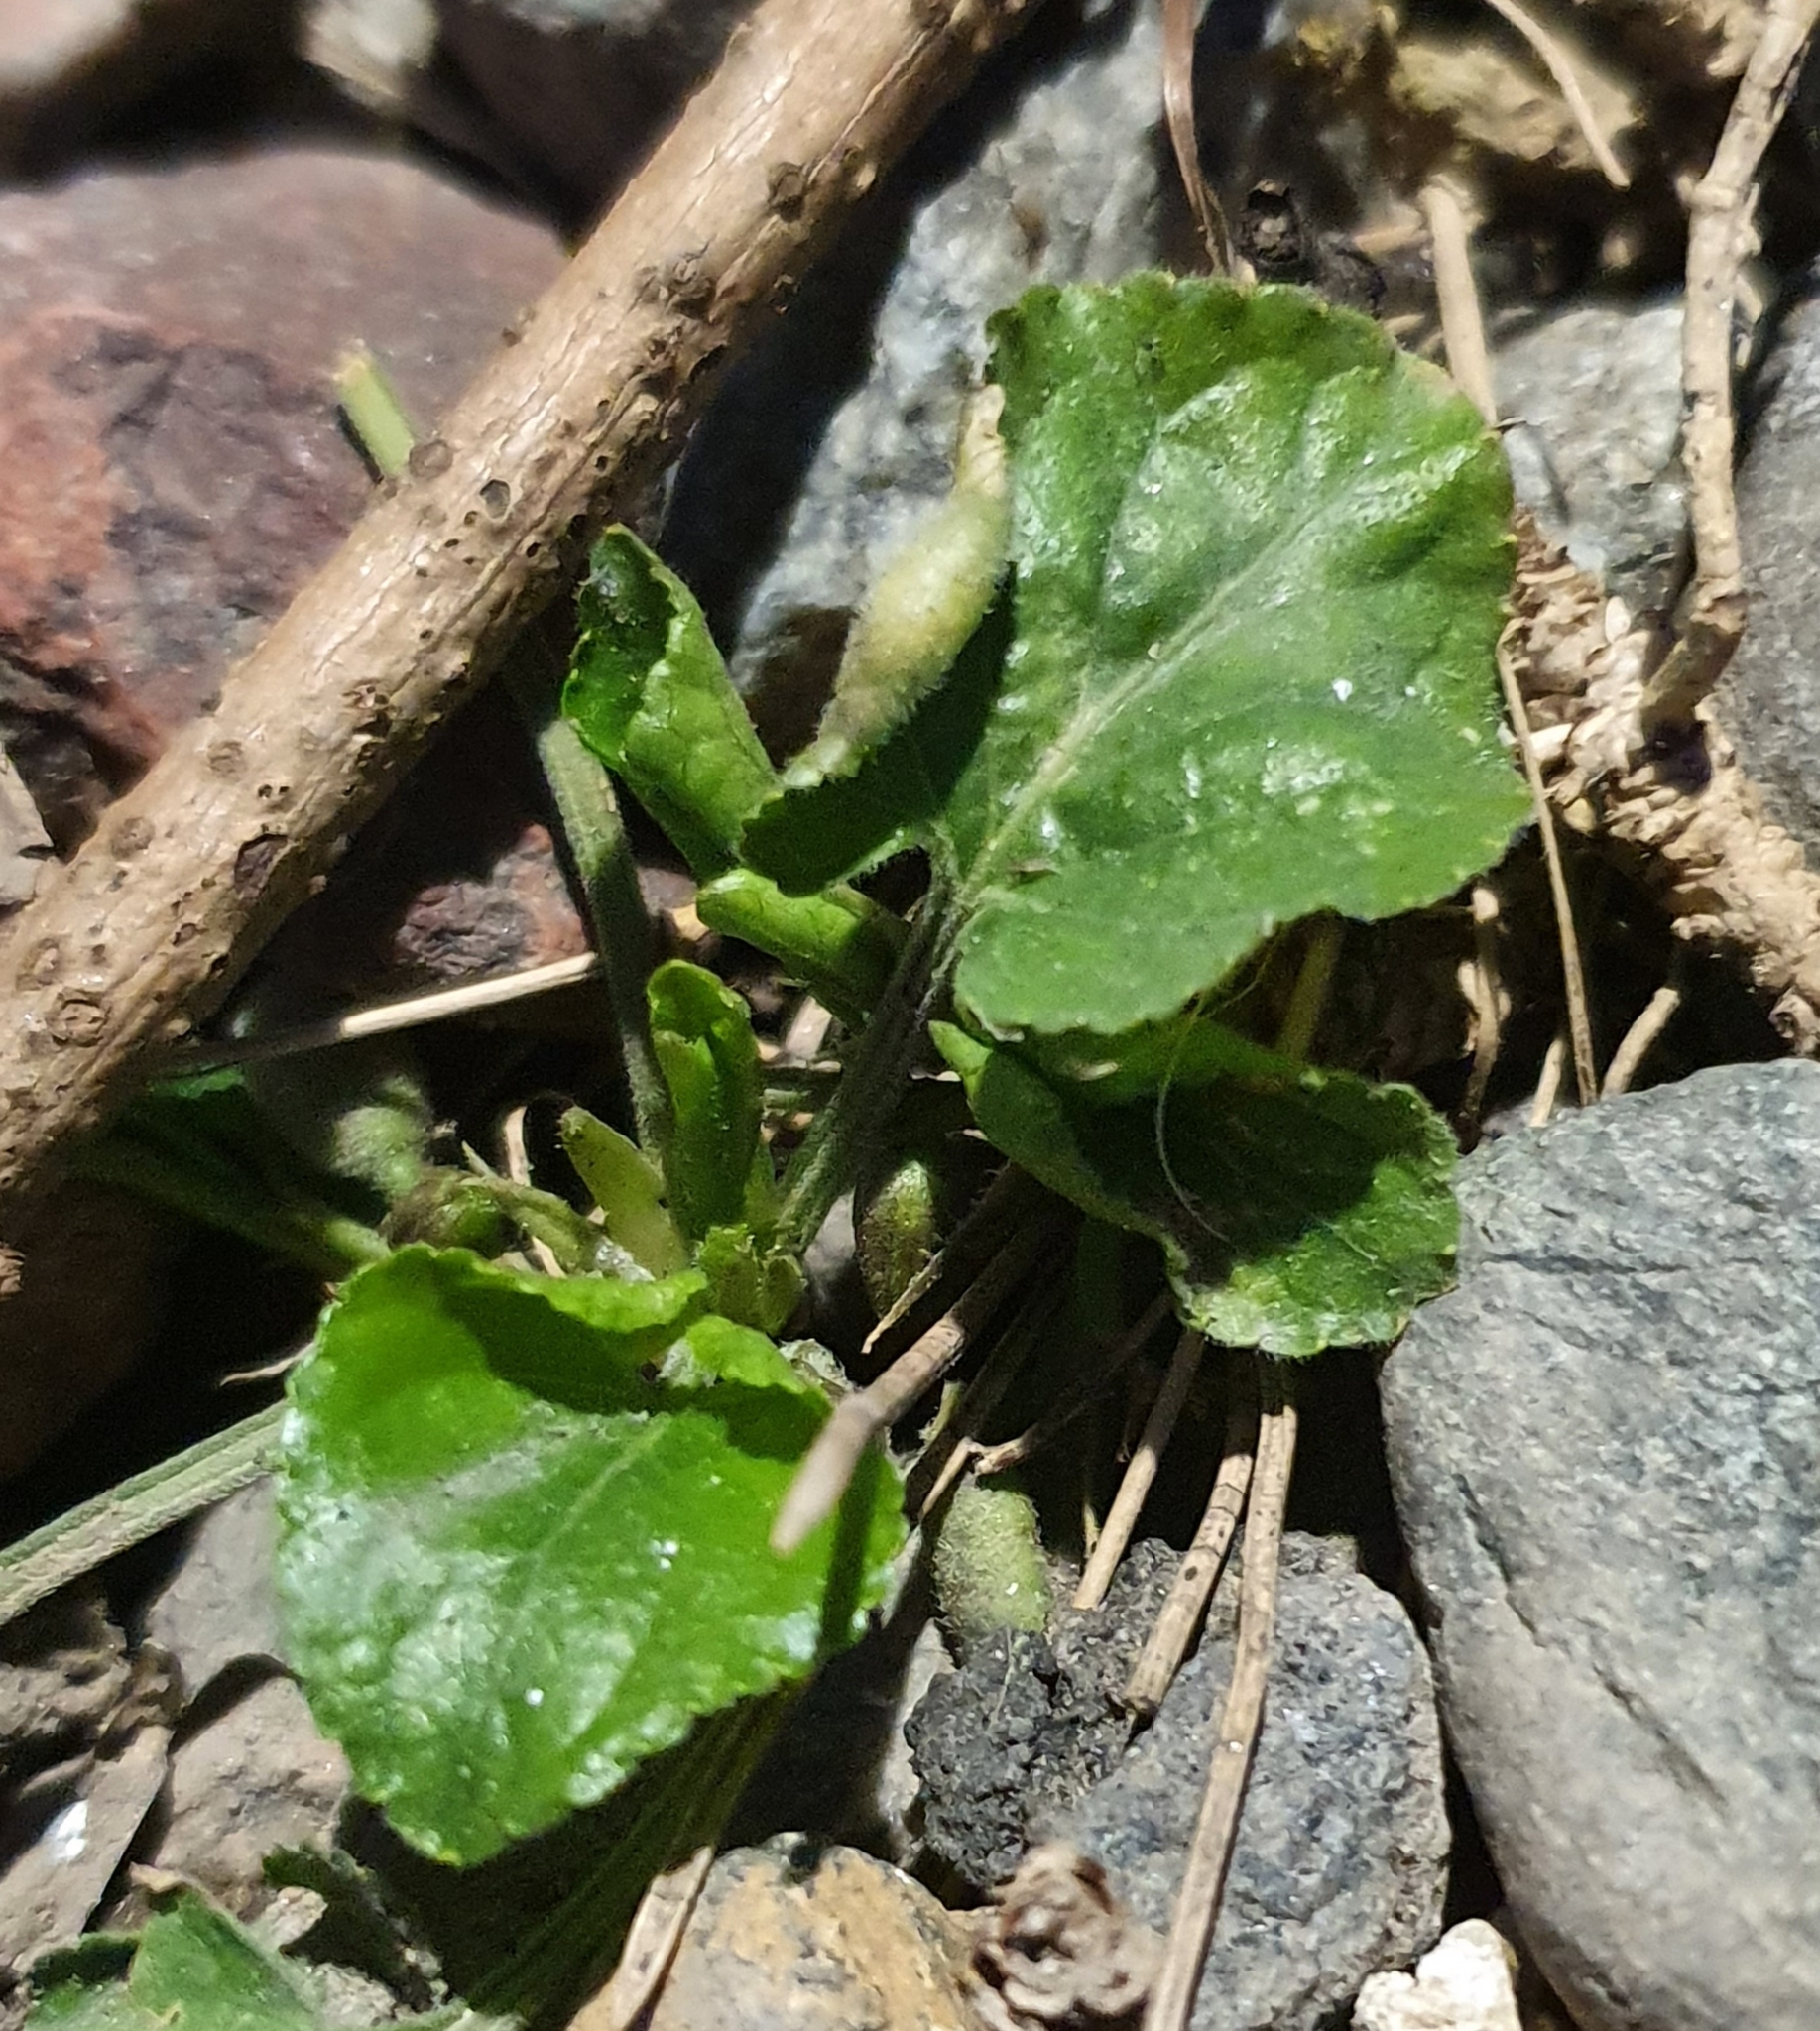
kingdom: Plantae
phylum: Tracheophyta
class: Magnoliopsida
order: Malpighiales
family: Violaceae
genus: Viola
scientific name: Viola odorata
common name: Sweet violet
